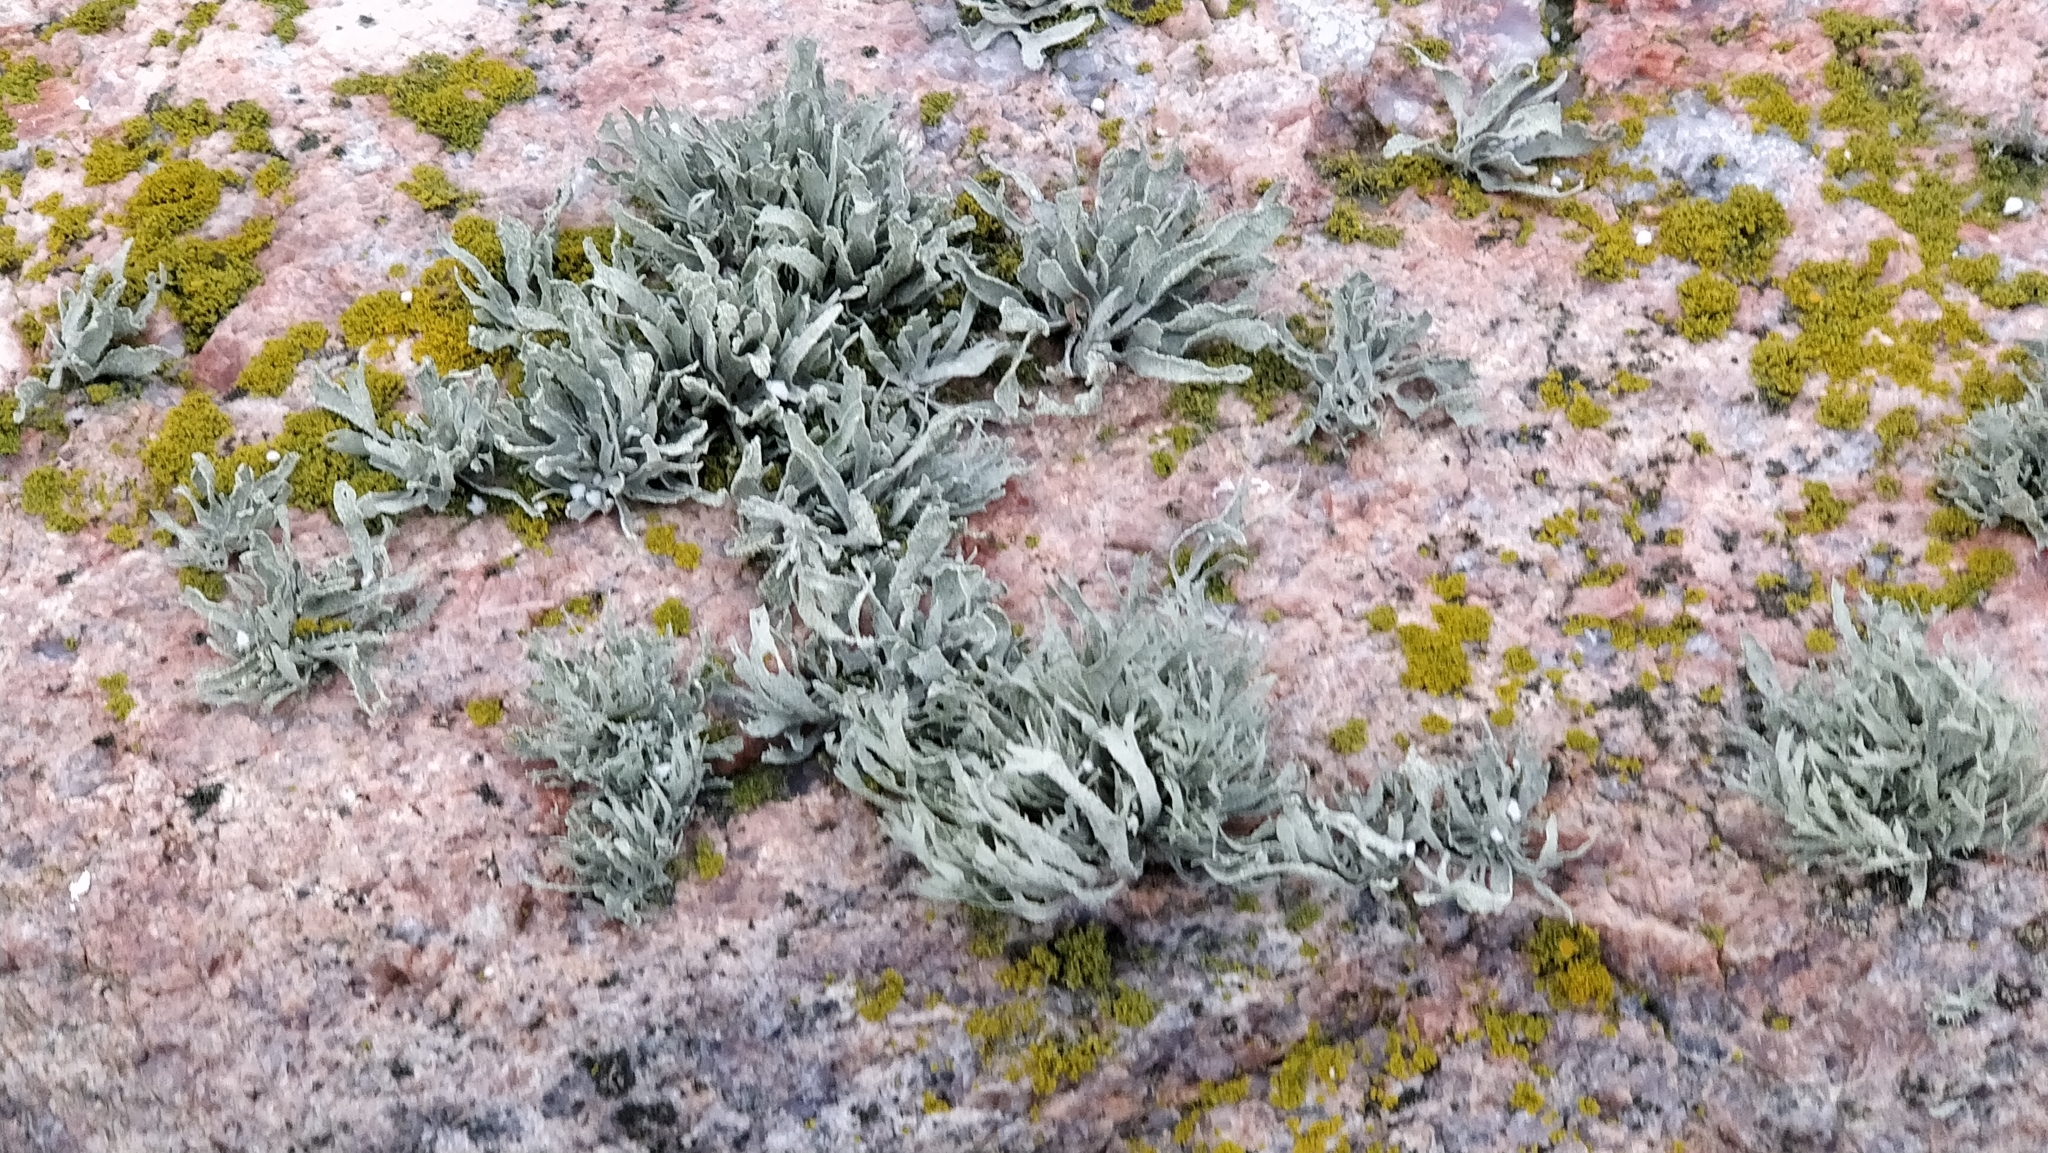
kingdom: Fungi
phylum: Ascomycota
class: Lecanoromycetes
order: Lecanorales
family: Ramalinaceae
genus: Ramalina
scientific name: Ramalina polymorpha
